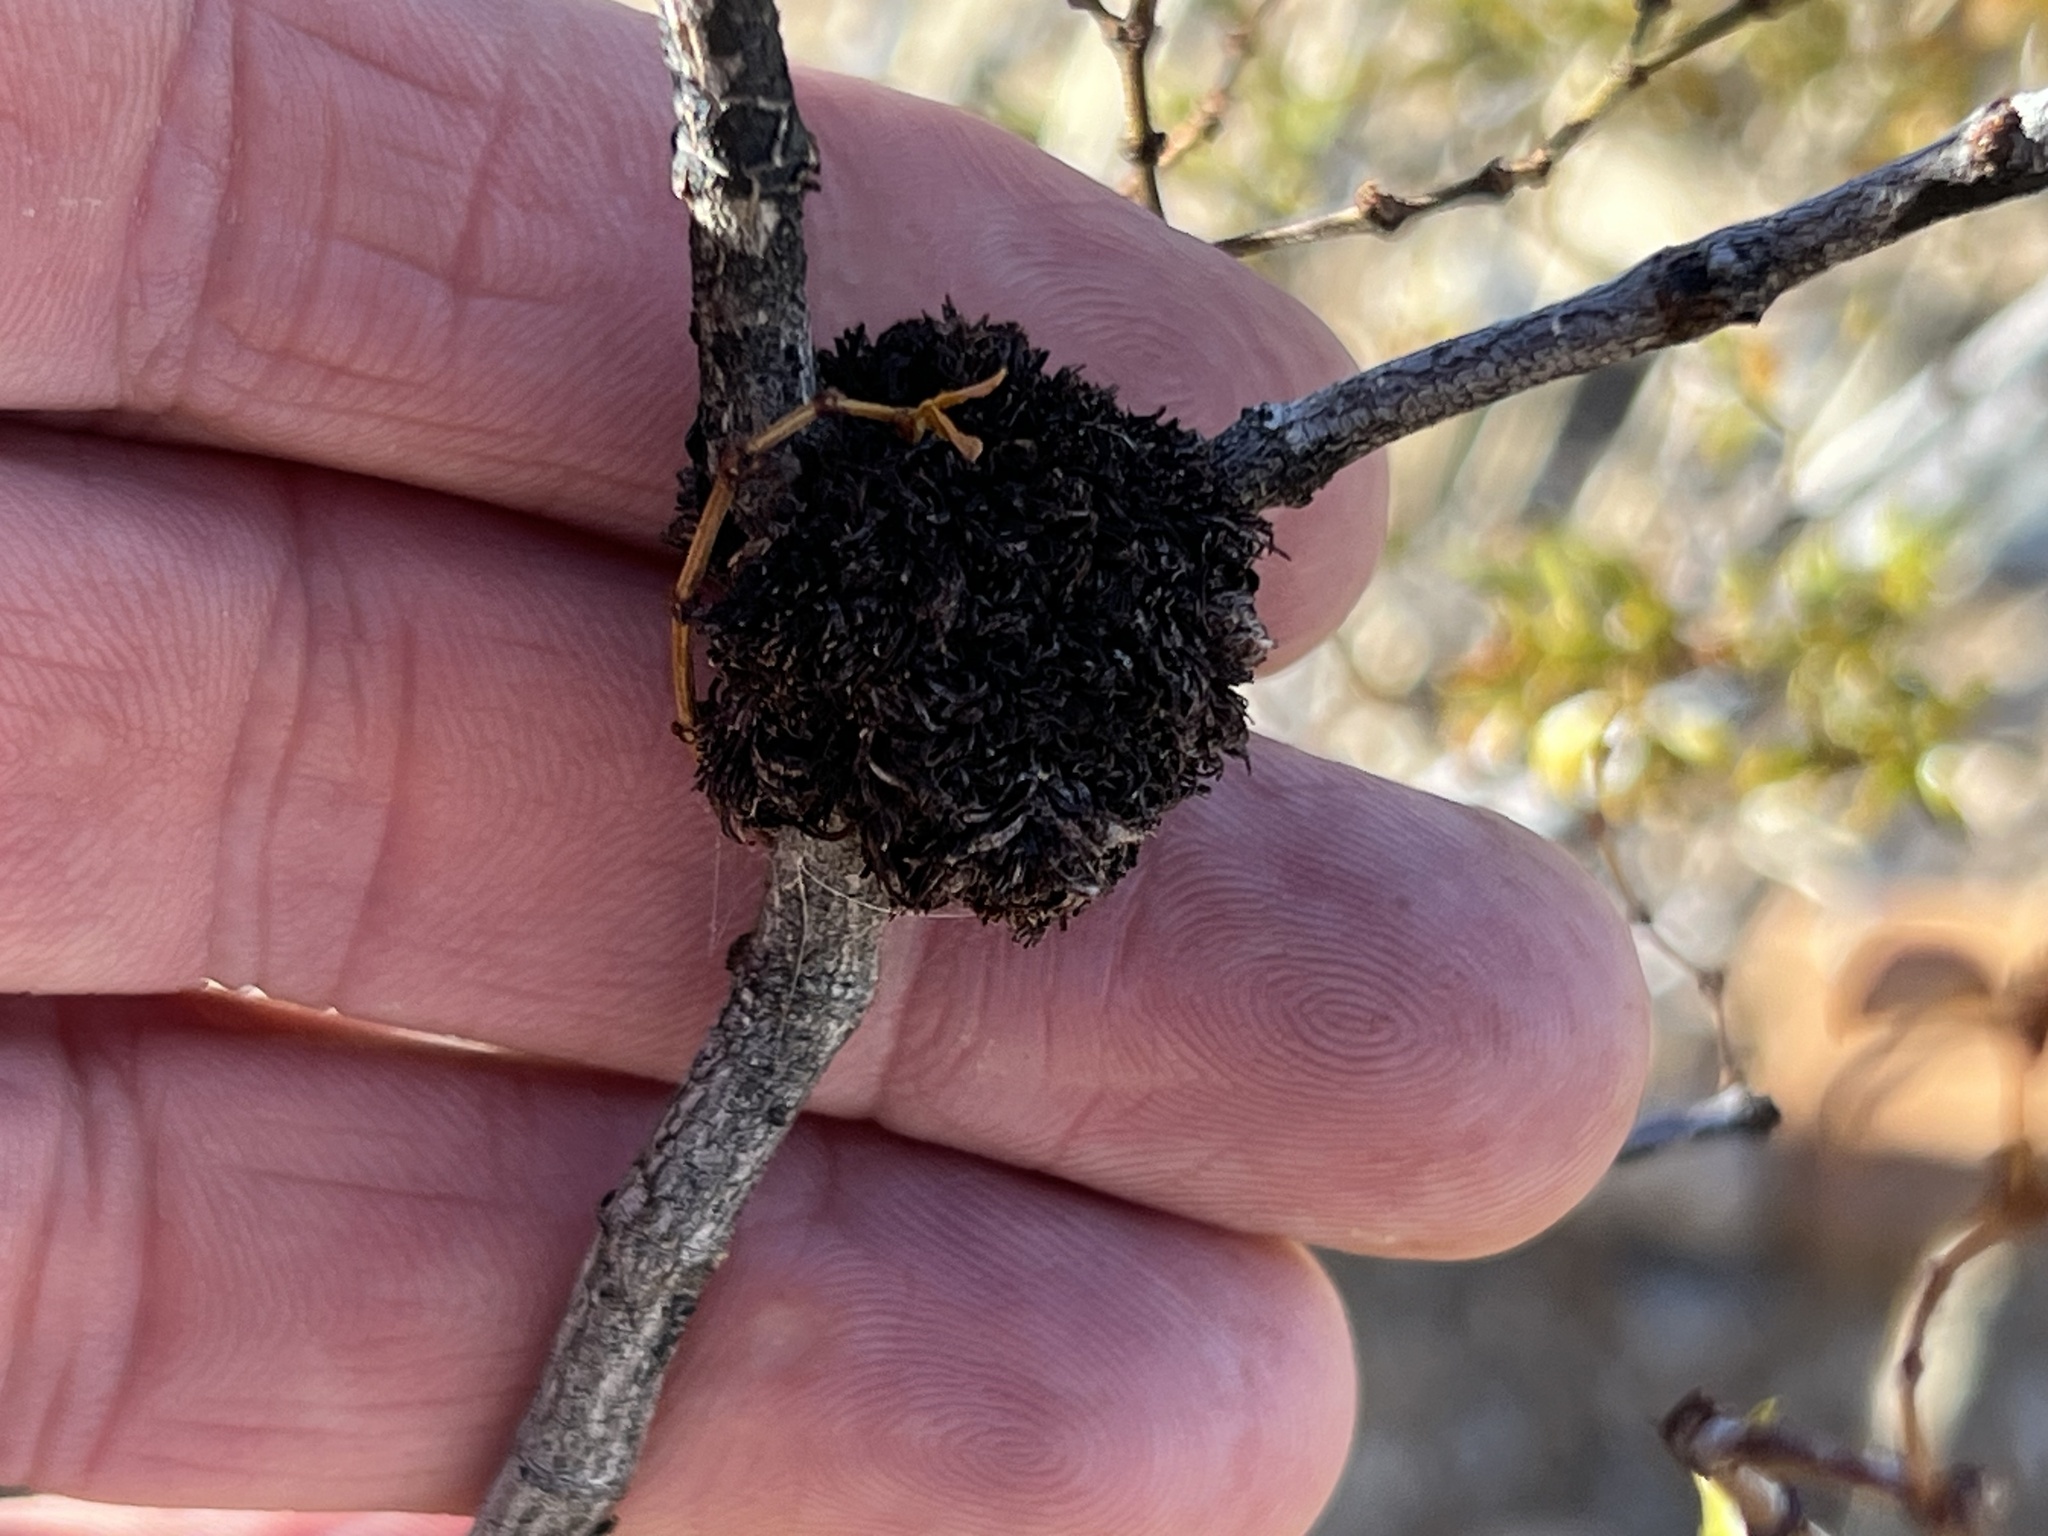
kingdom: Animalia
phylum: Arthropoda
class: Insecta
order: Diptera
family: Cecidomyiidae
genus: Asphondylia
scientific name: Asphondylia auripila
